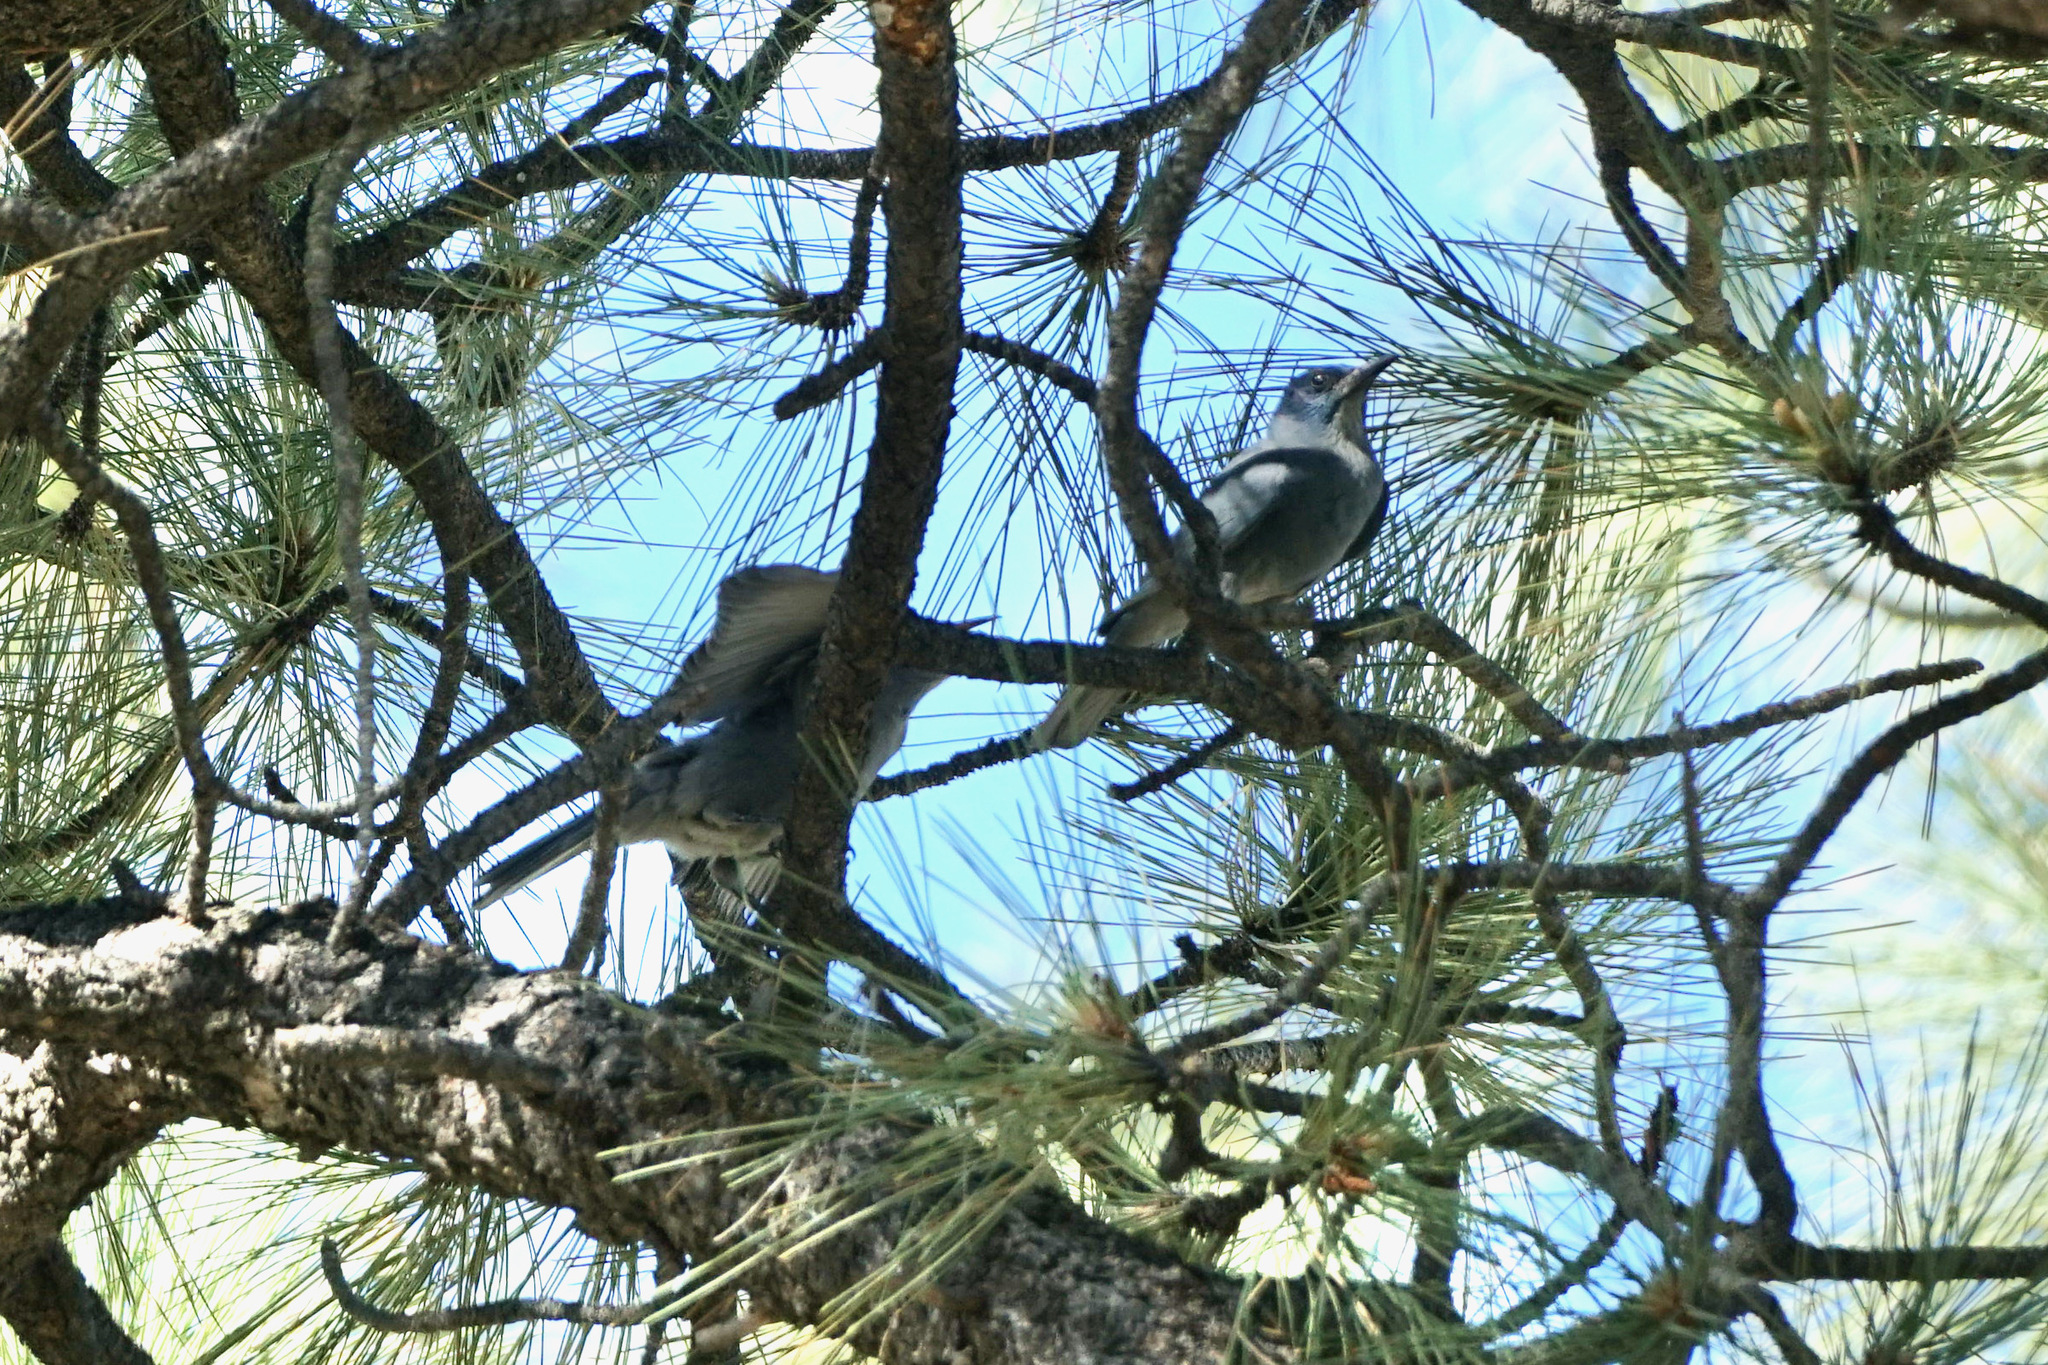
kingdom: Animalia
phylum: Chordata
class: Aves
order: Passeriformes
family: Corvidae
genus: Gymnorhinus
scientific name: Gymnorhinus cyanocephalus
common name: Pinyon jay
